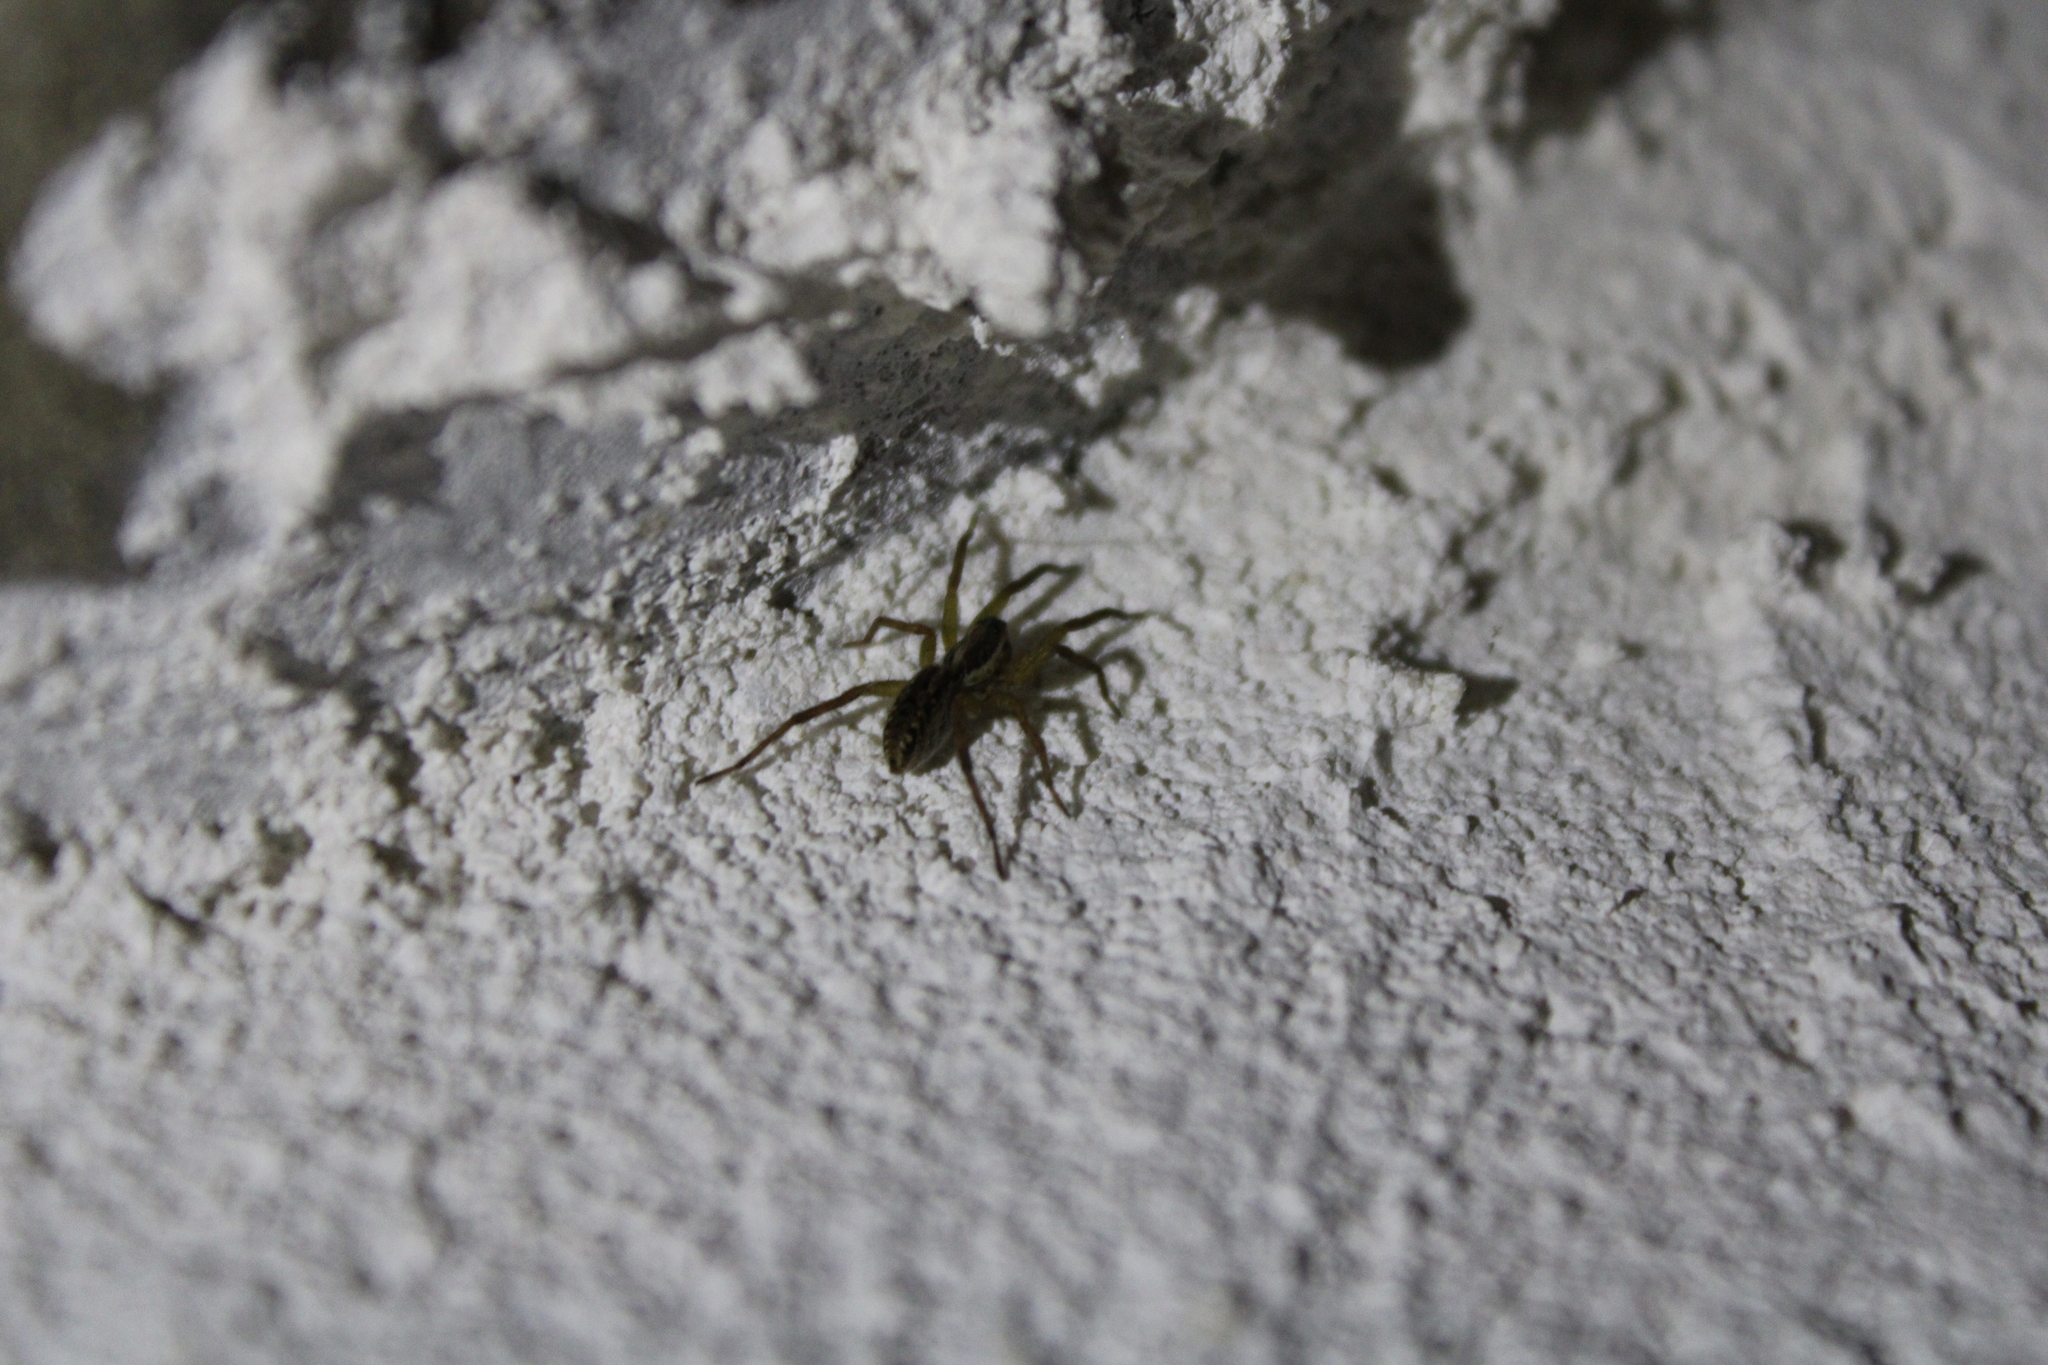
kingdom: Animalia
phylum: Arthropoda
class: Arachnida
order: Araneae
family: Lycosidae
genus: Hogna
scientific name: Hogna radiata
